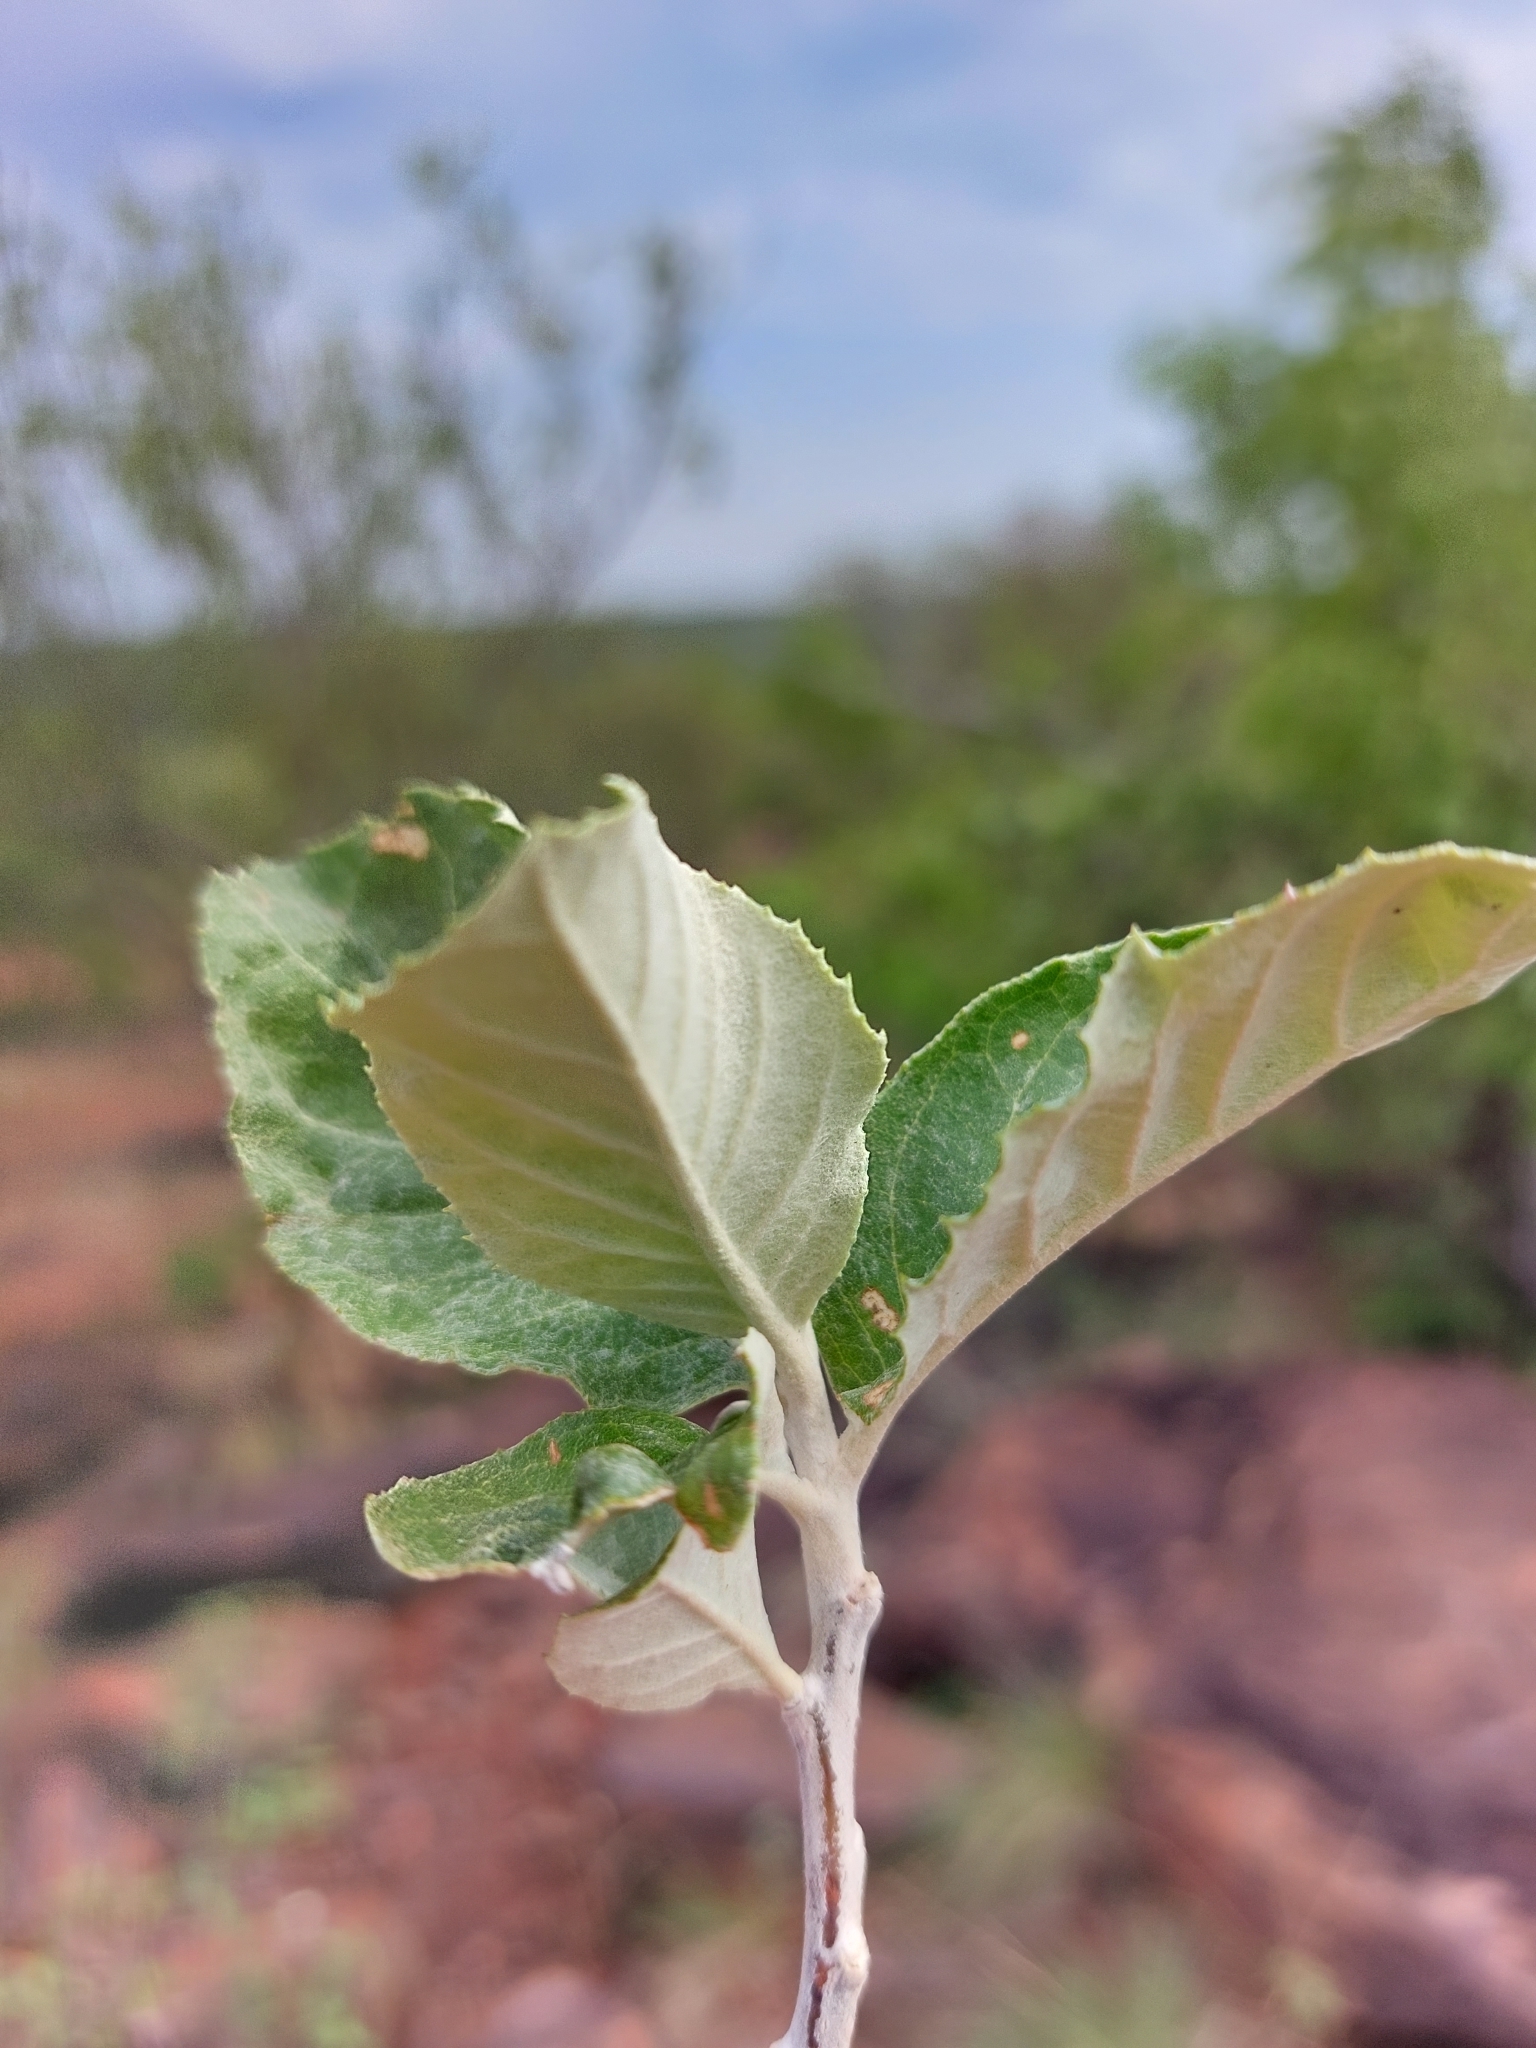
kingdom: Plantae
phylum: Tracheophyta
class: Magnoliopsida
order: Asterales
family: Asteraceae
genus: Brachylaena
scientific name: Brachylaena discolor
